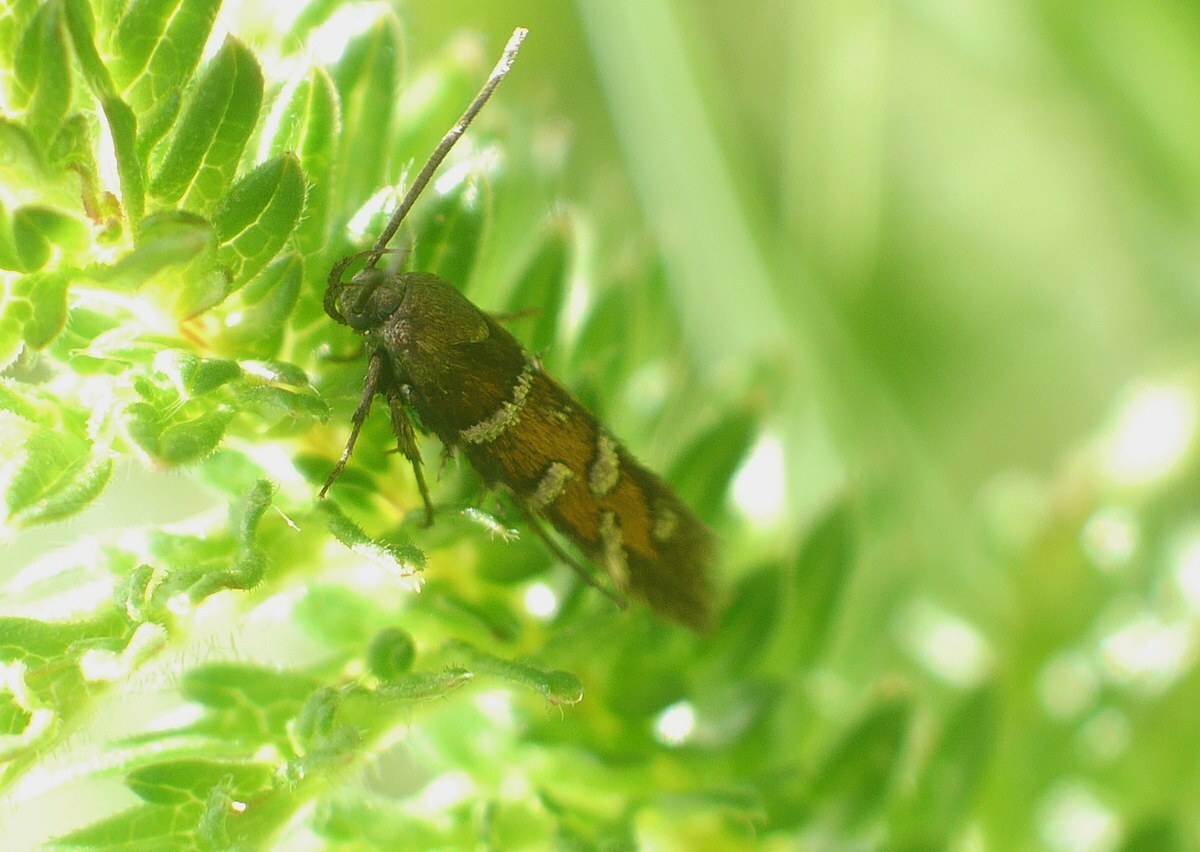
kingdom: Animalia
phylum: Arthropoda
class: Insecta
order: Lepidoptera
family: Cosmopterigidae
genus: Pancalia
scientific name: Pancalia nodosella
